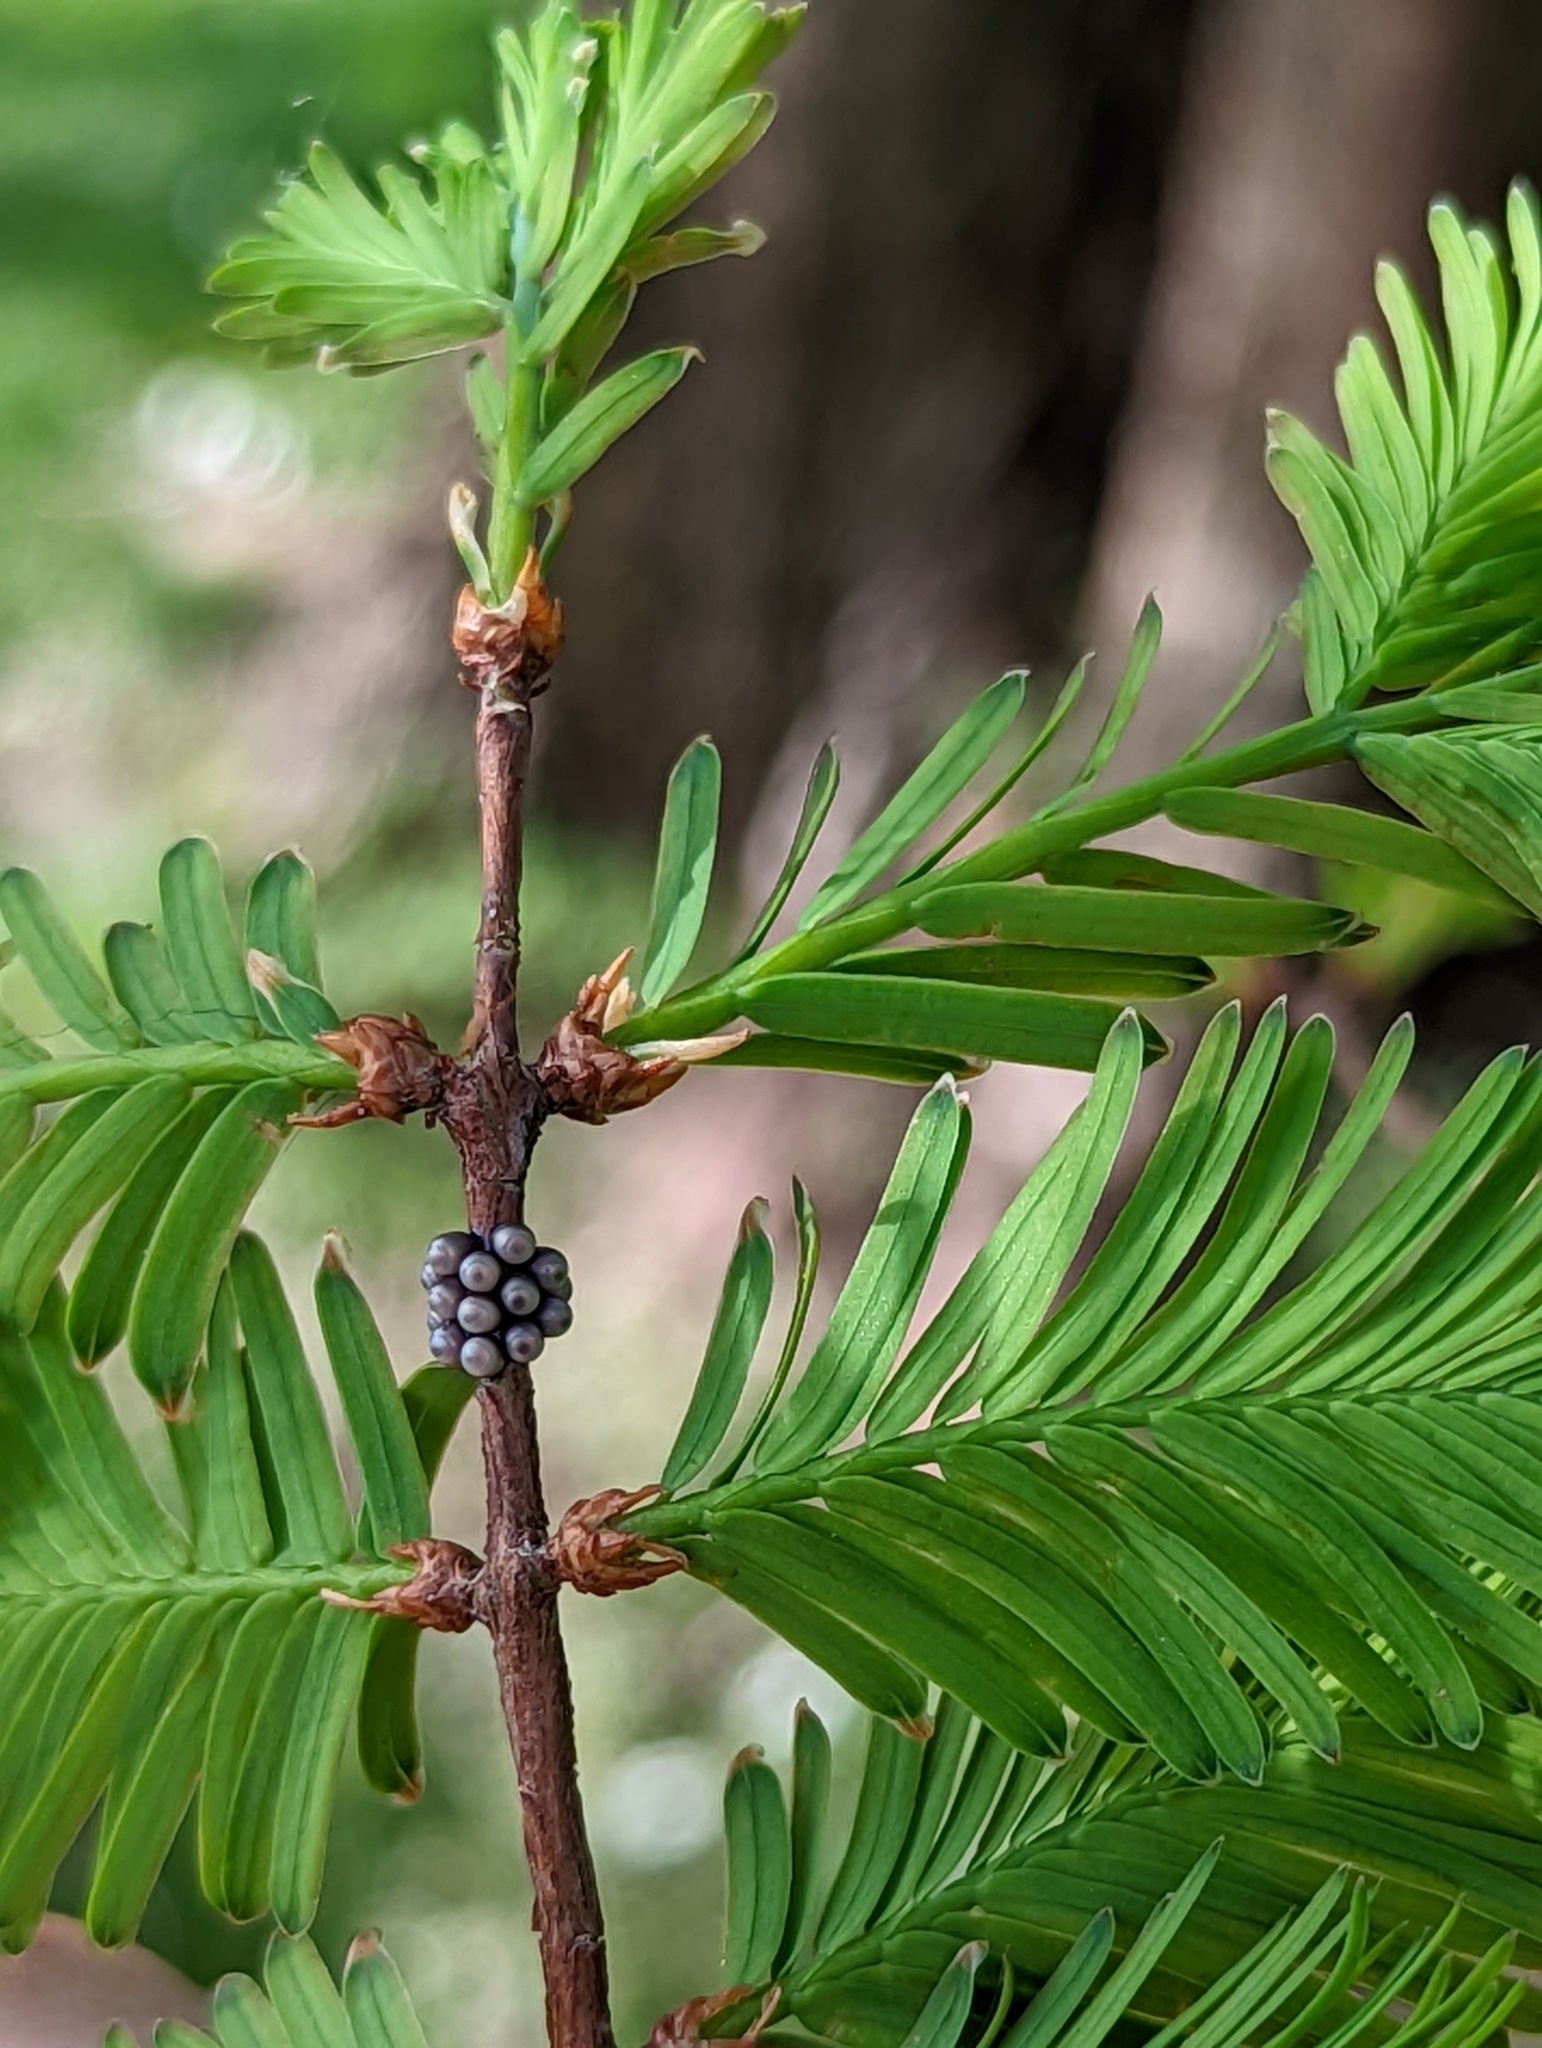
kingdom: Animalia
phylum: Arthropoda
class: Insecta
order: Hemiptera
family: Pentatomidae
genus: Rhaphigaster
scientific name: Rhaphigaster nebulosa
